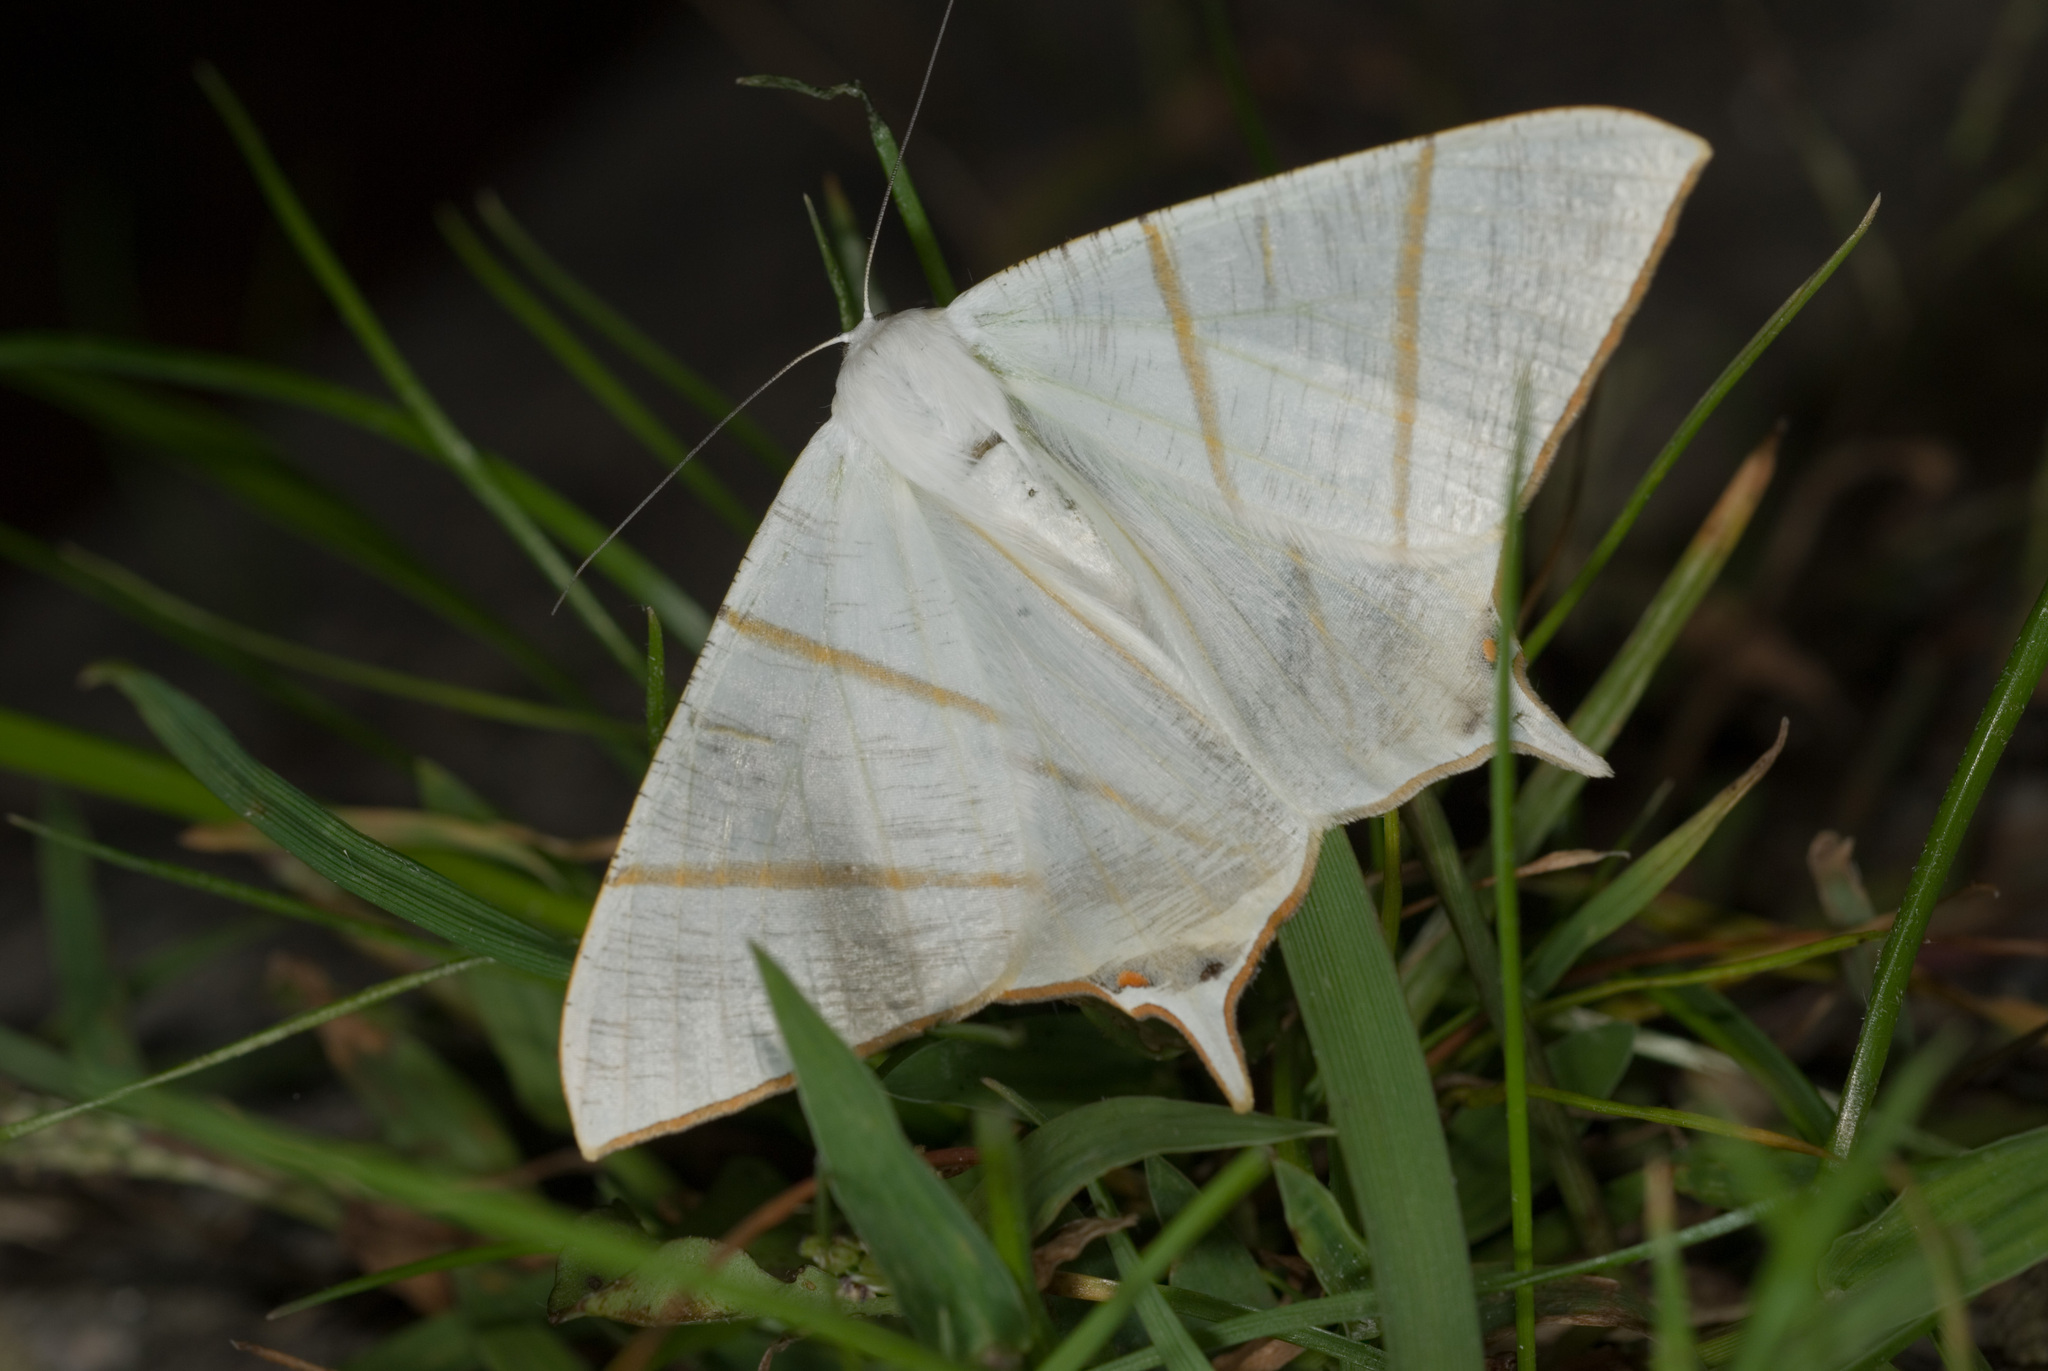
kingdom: Animalia
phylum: Arthropoda
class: Insecta
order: Lepidoptera
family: Geometridae
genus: Ourapteryx
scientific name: Ourapteryx changi
